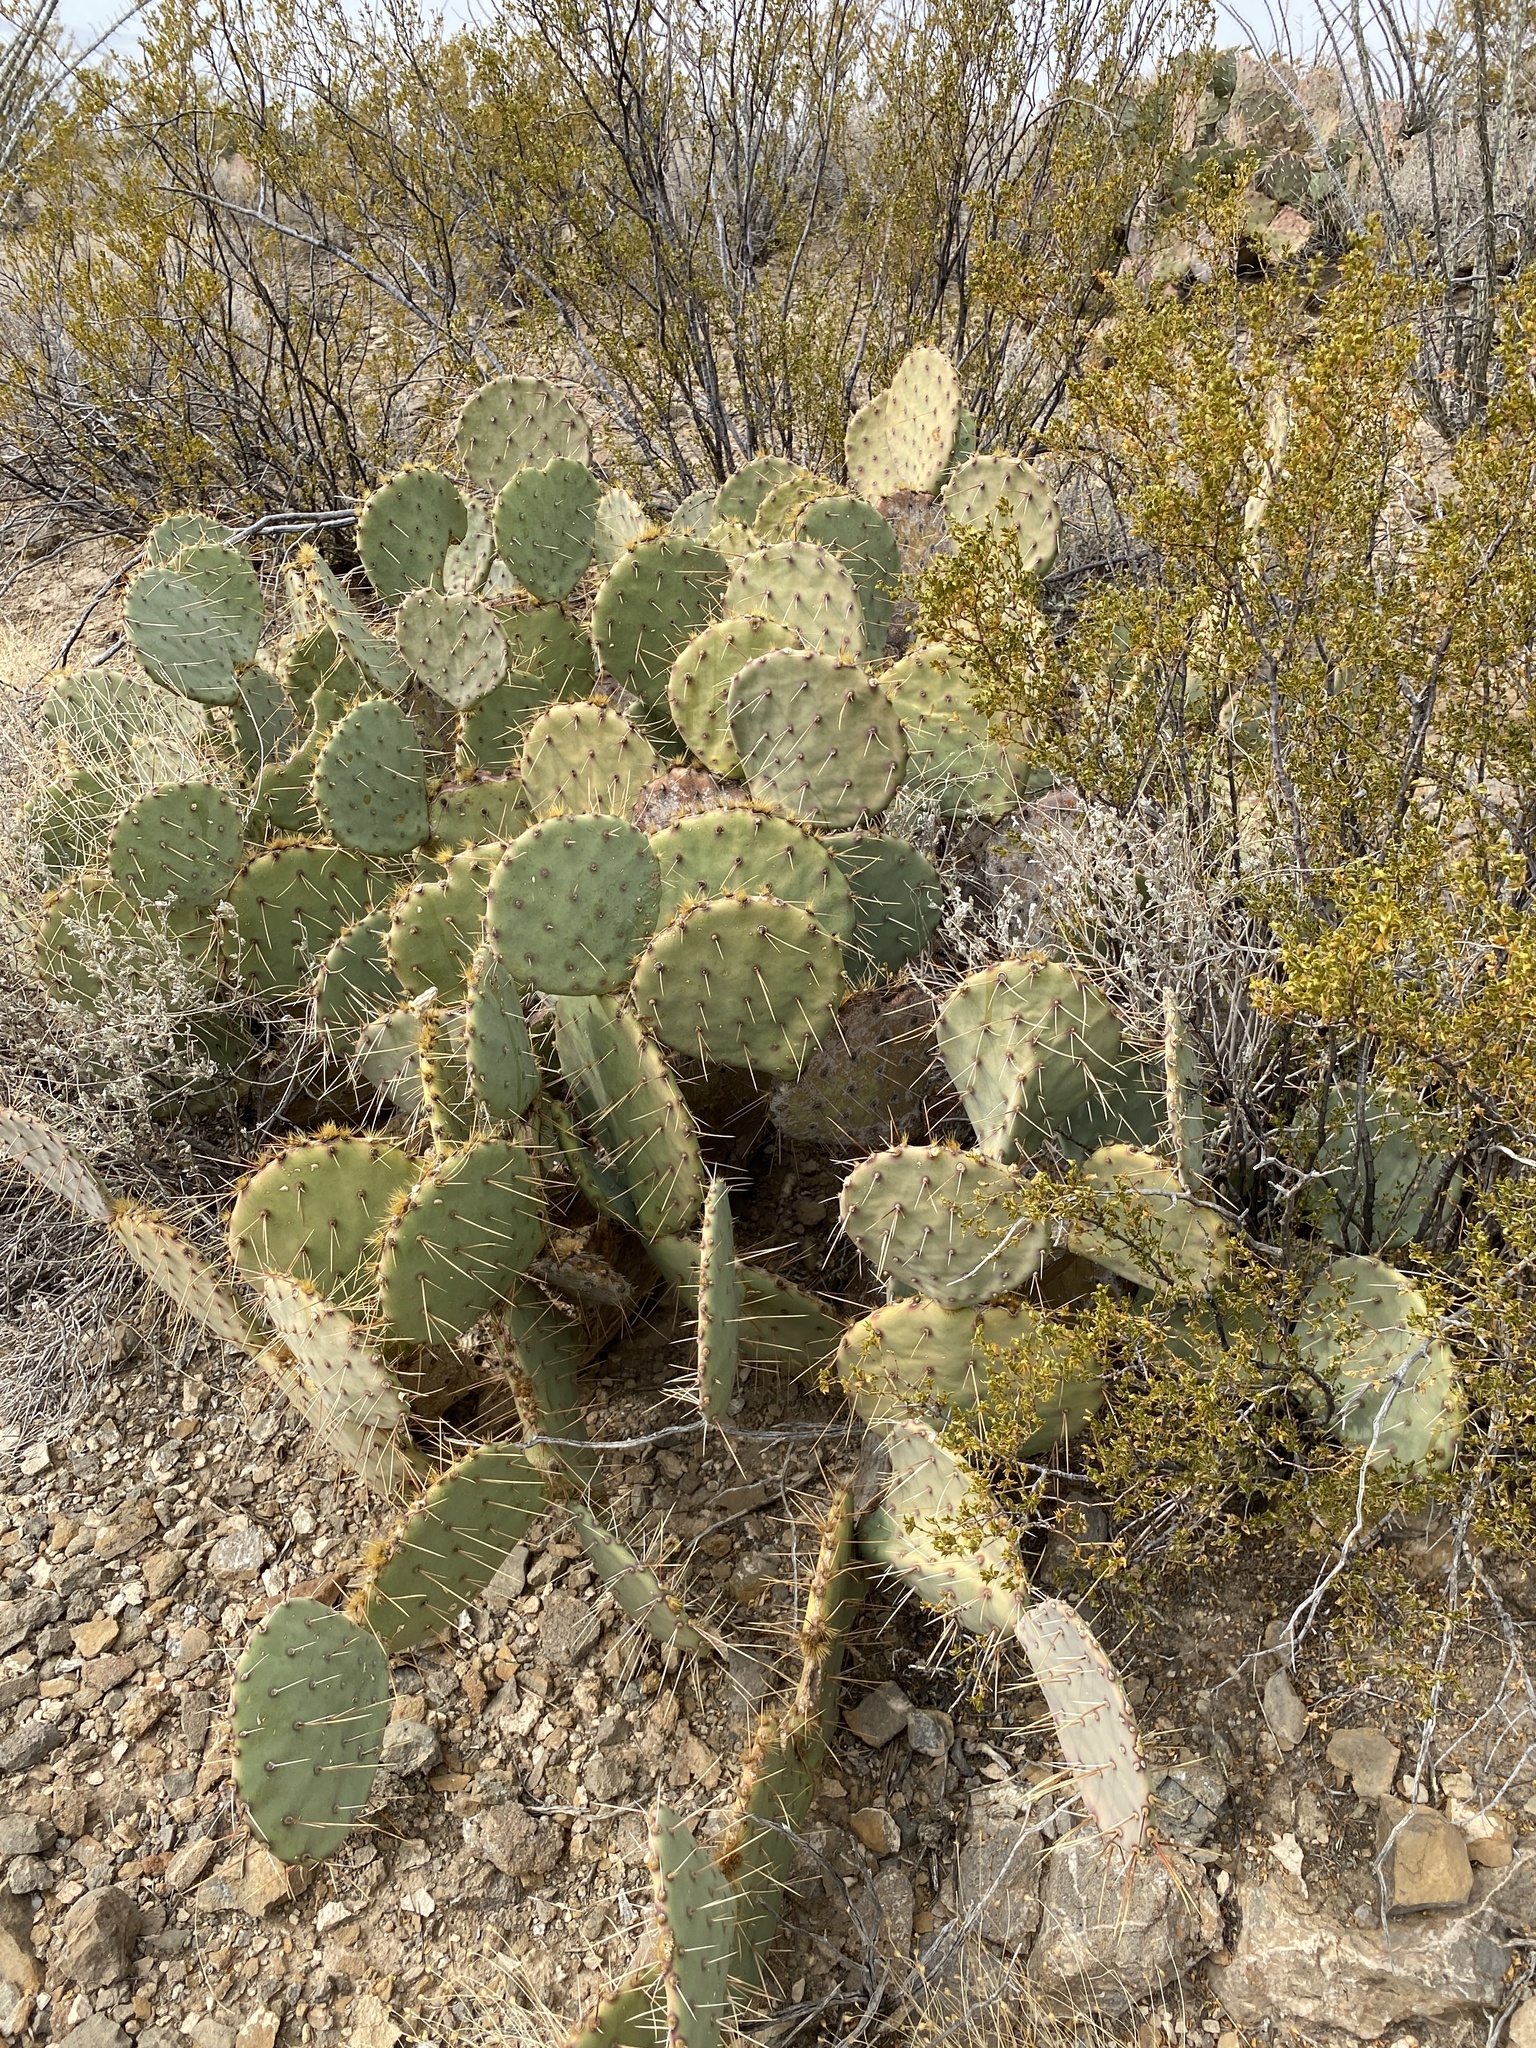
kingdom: Plantae
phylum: Tracheophyta
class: Magnoliopsida
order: Caryophyllales
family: Cactaceae
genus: Opuntia
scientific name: Opuntia engelmannii
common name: Cactus-apple
